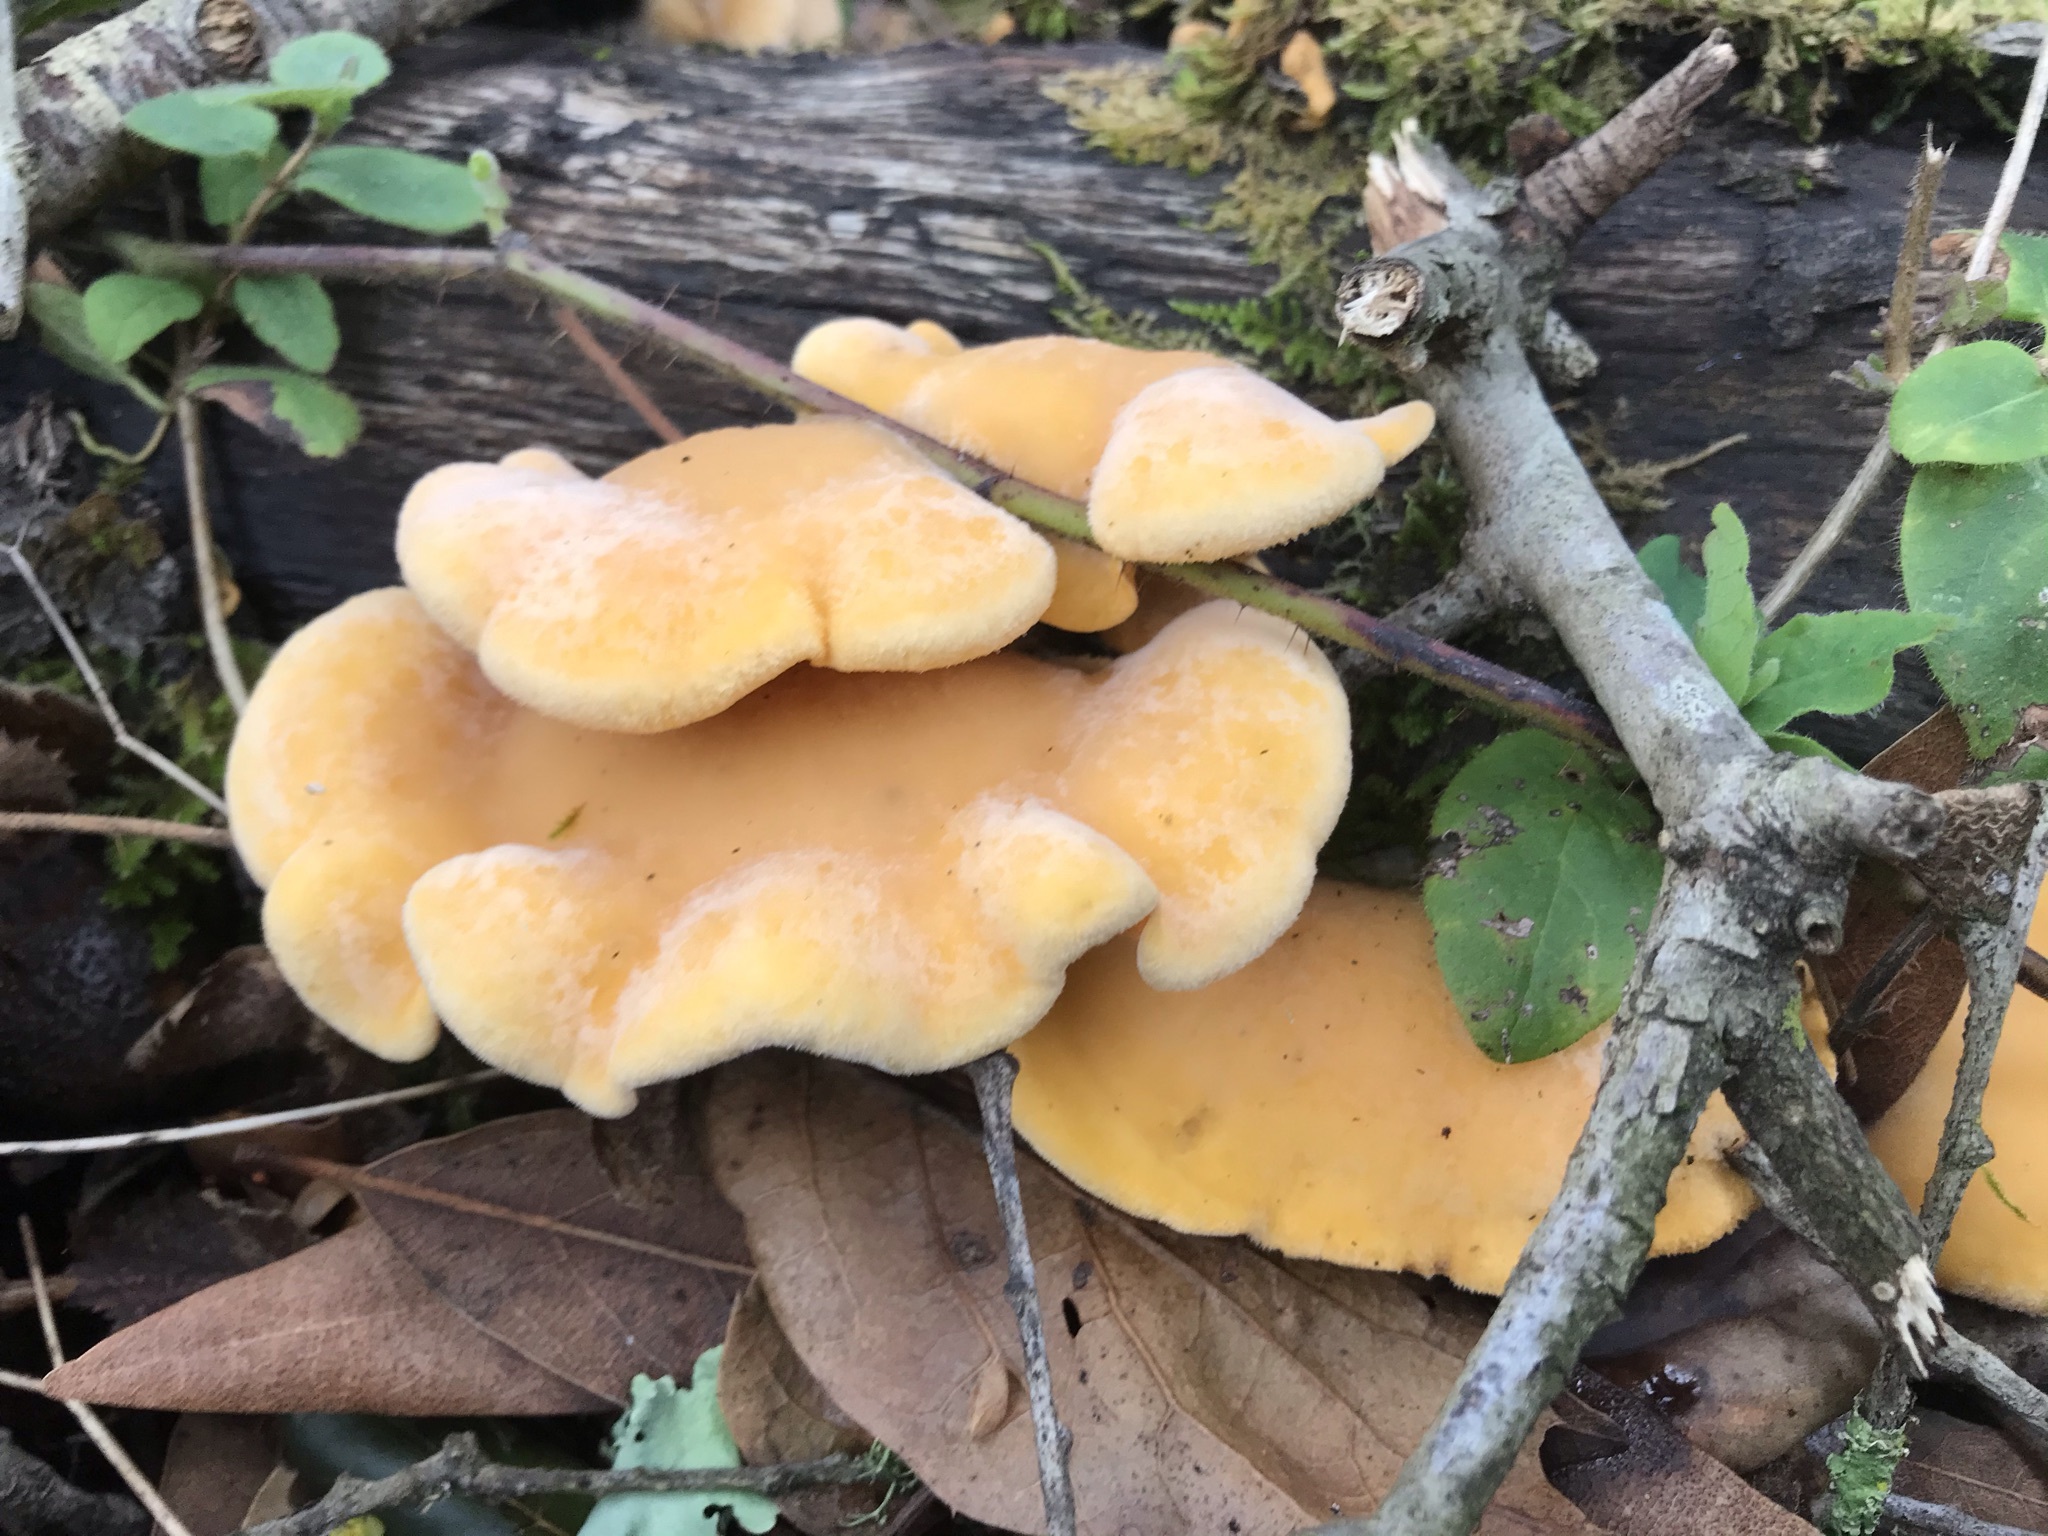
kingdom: Fungi
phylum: Basidiomycota
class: Agaricomycetes
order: Agaricales
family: Phyllotopsidaceae
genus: Phyllotopsis
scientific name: Phyllotopsis nidulans
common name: Orange mock oyster
